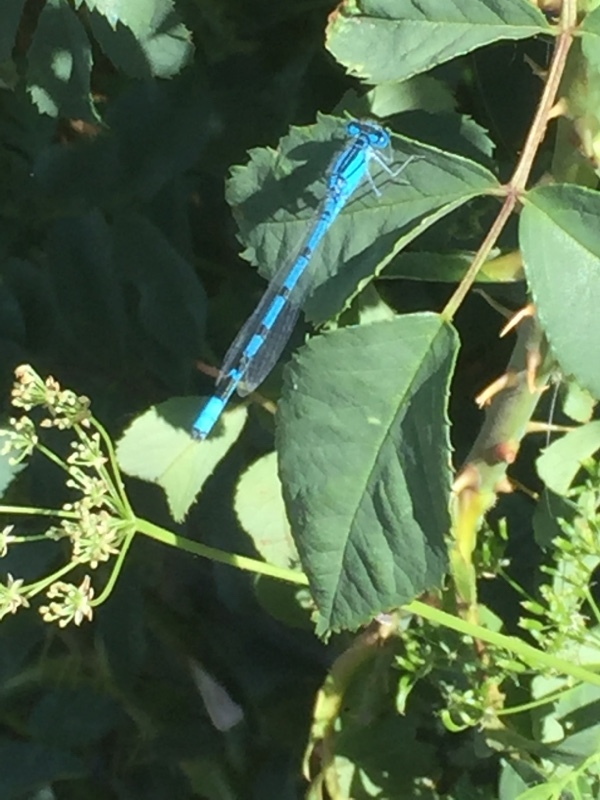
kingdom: Animalia
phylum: Arthropoda
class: Insecta
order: Odonata
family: Coenagrionidae
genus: Enallagma
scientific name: Enallagma cyathigerum
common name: Common blue damselfly
